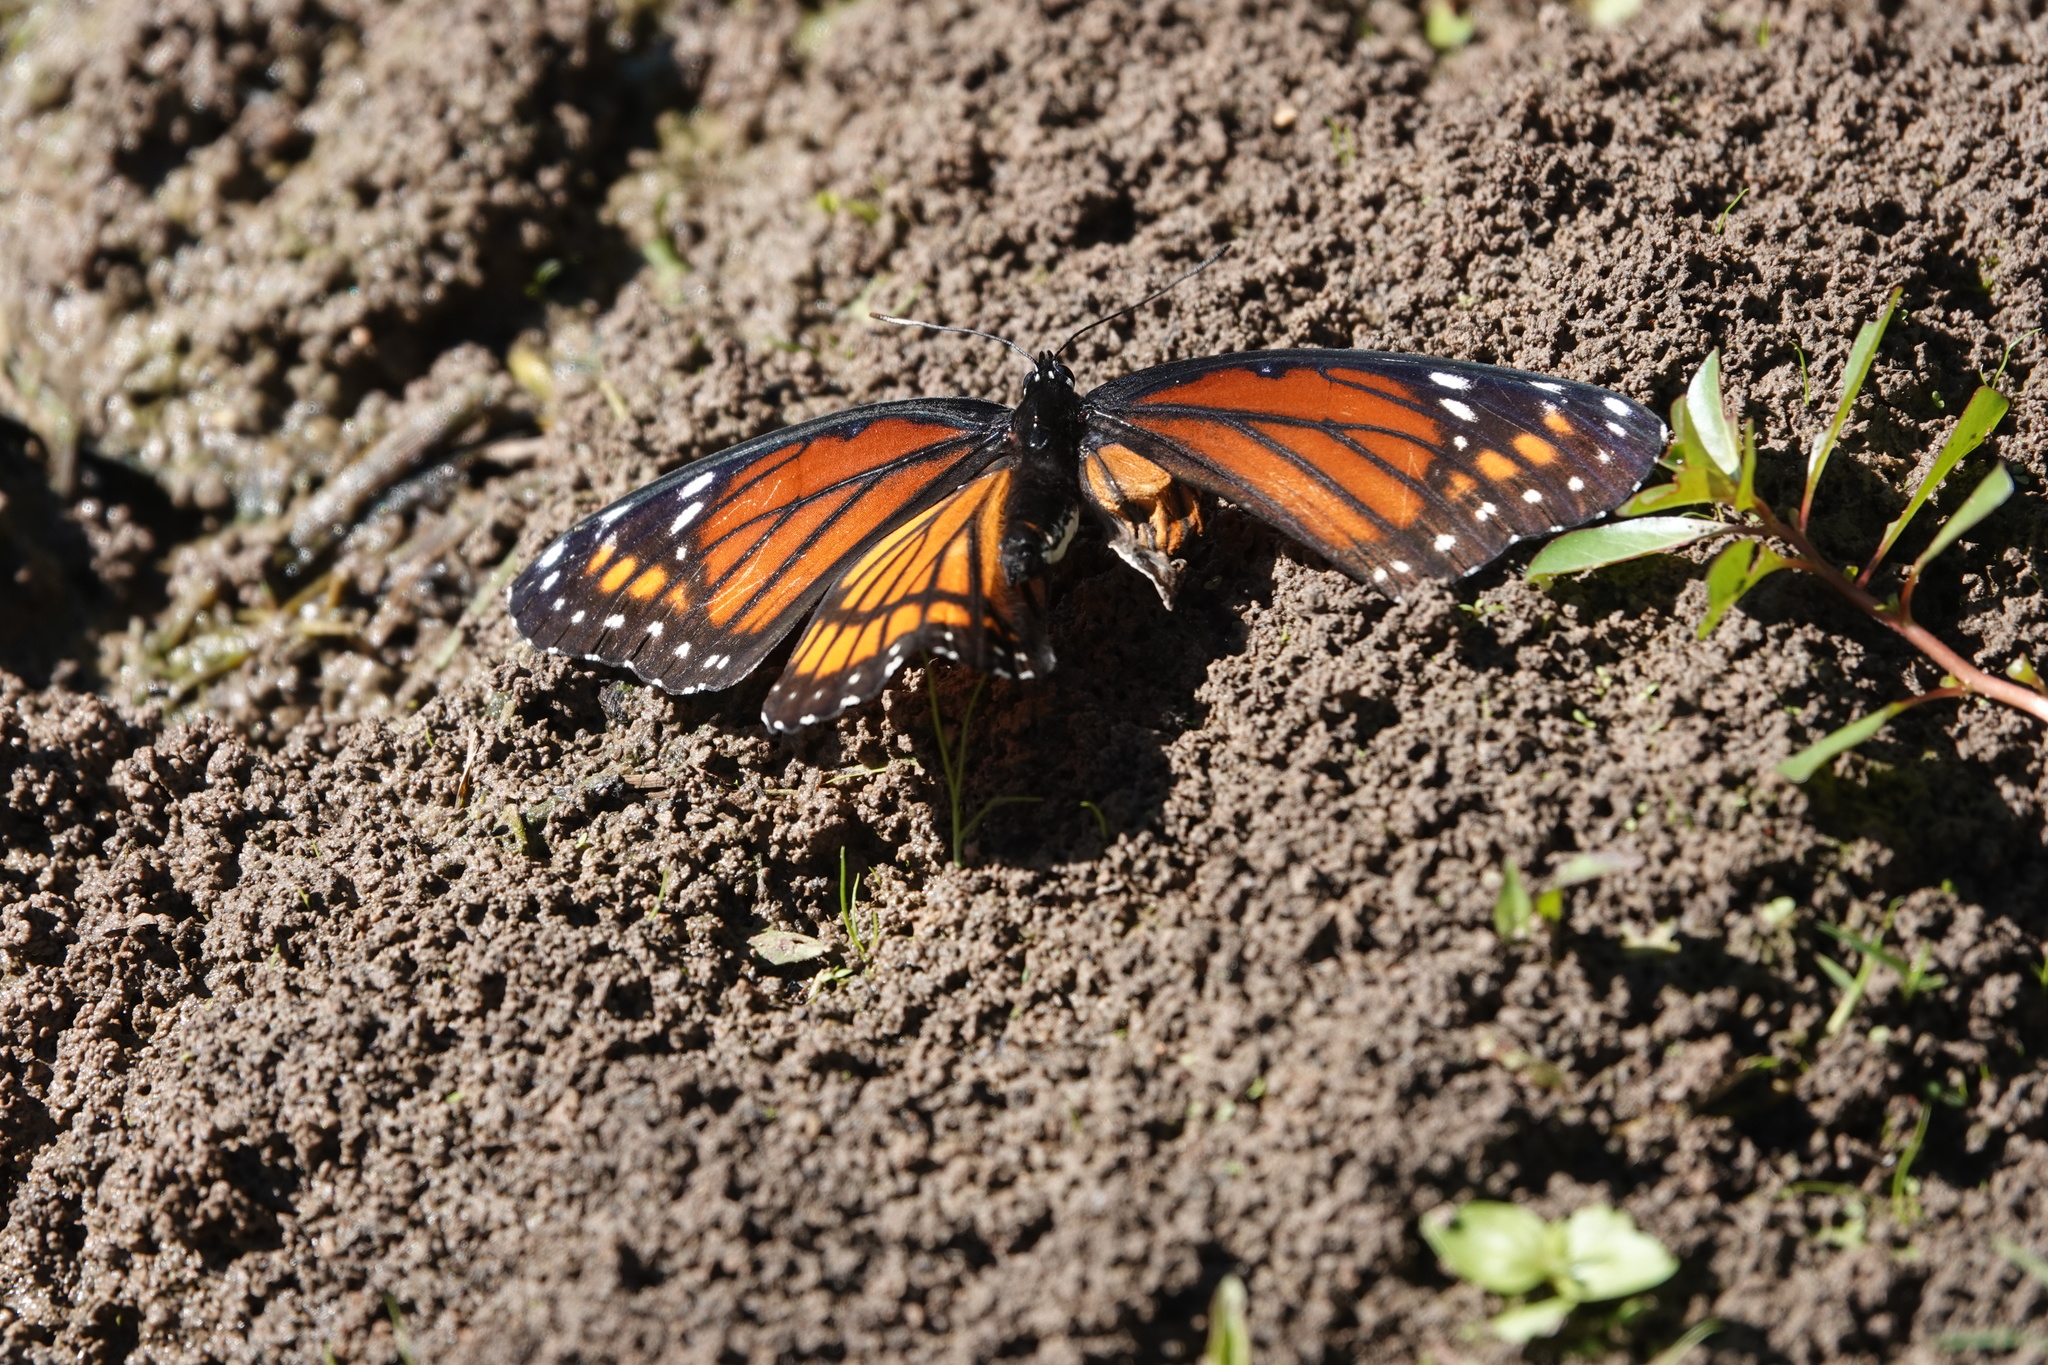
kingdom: Animalia
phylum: Arthropoda
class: Insecta
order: Lepidoptera
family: Nymphalidae
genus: Limenitis
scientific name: Limenitis archippus
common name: Viceroy
